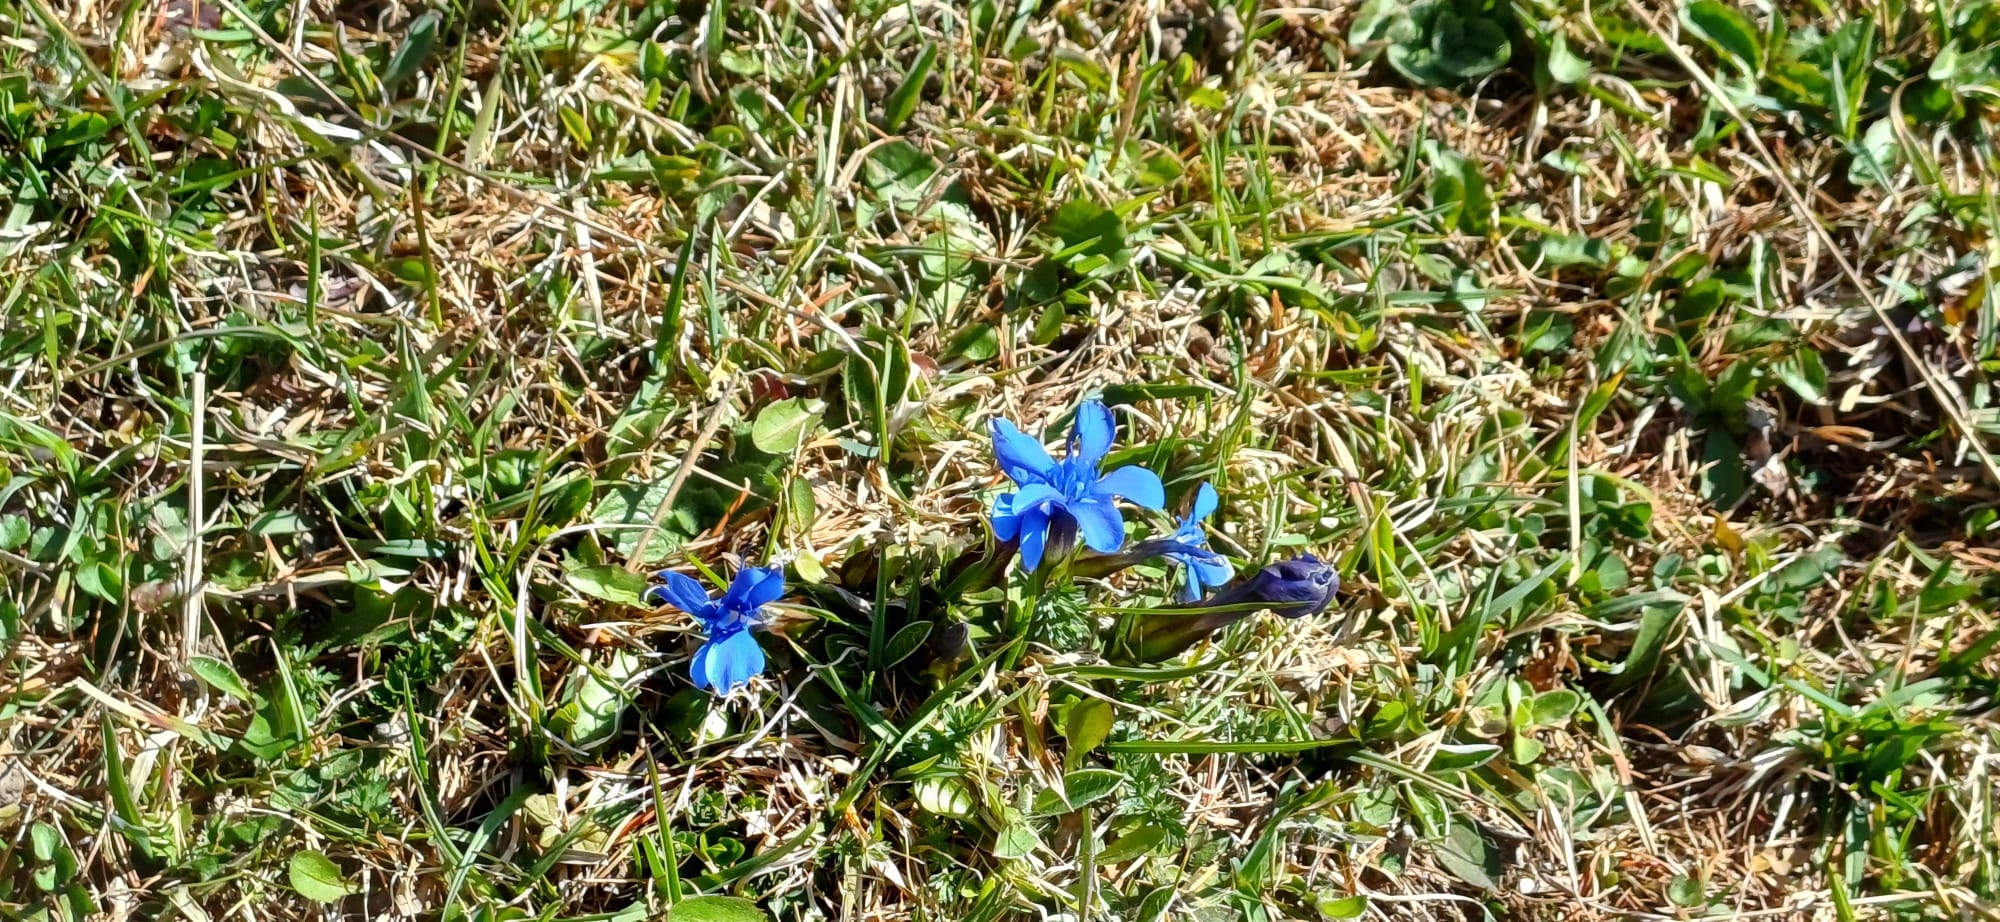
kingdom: Plantae
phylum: Tracheophyta
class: Magnoliopsida
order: Gentianales
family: Gentianaceae
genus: Gentiana
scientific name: Gentiana verna
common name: Spring gentian
